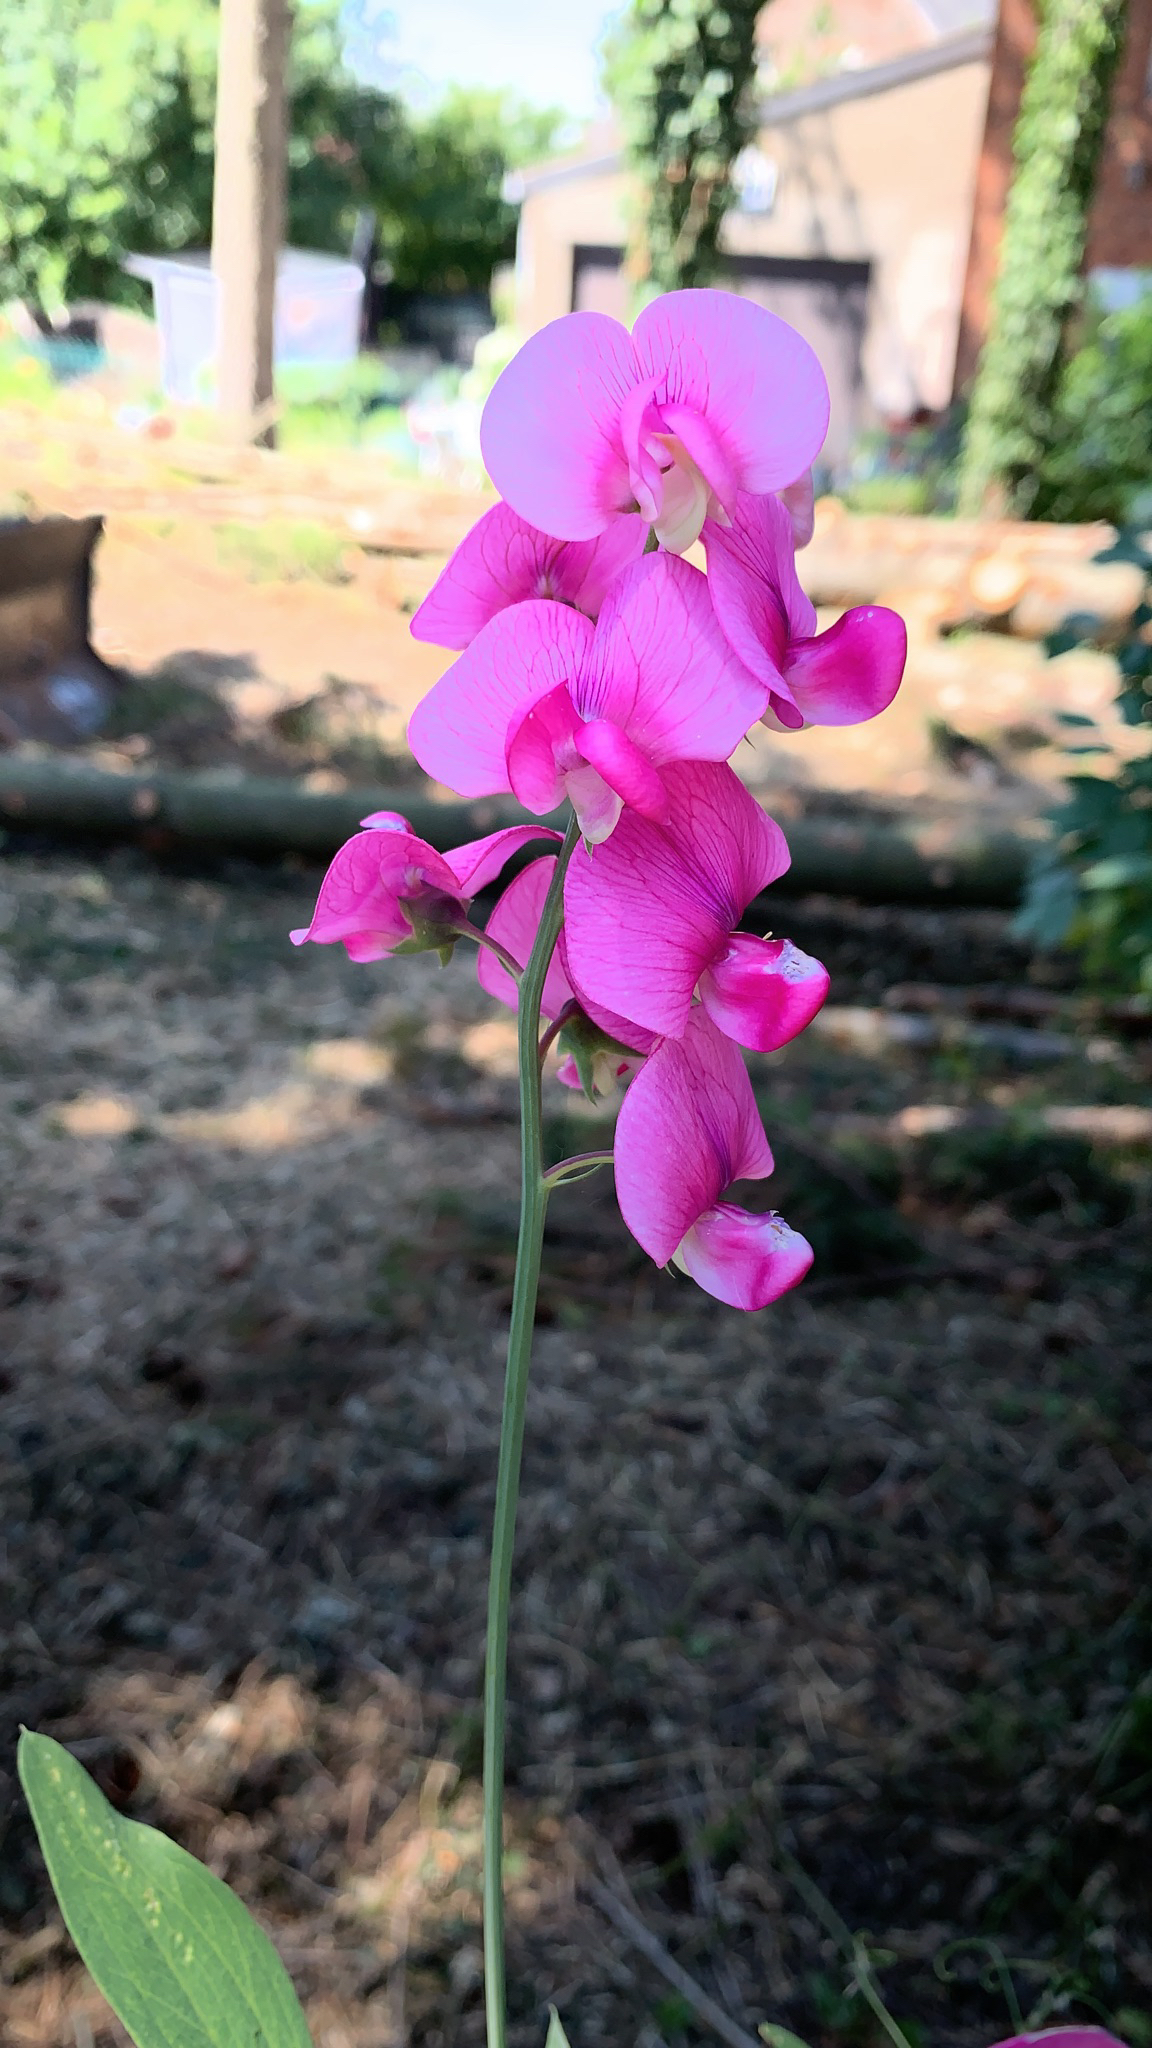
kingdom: Plantae
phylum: Tracheophyta
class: Magnoliopsida
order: Fabales
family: Fabaceae
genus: Lathyrus
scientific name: Lathyrus latifolius
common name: Perennial pea
